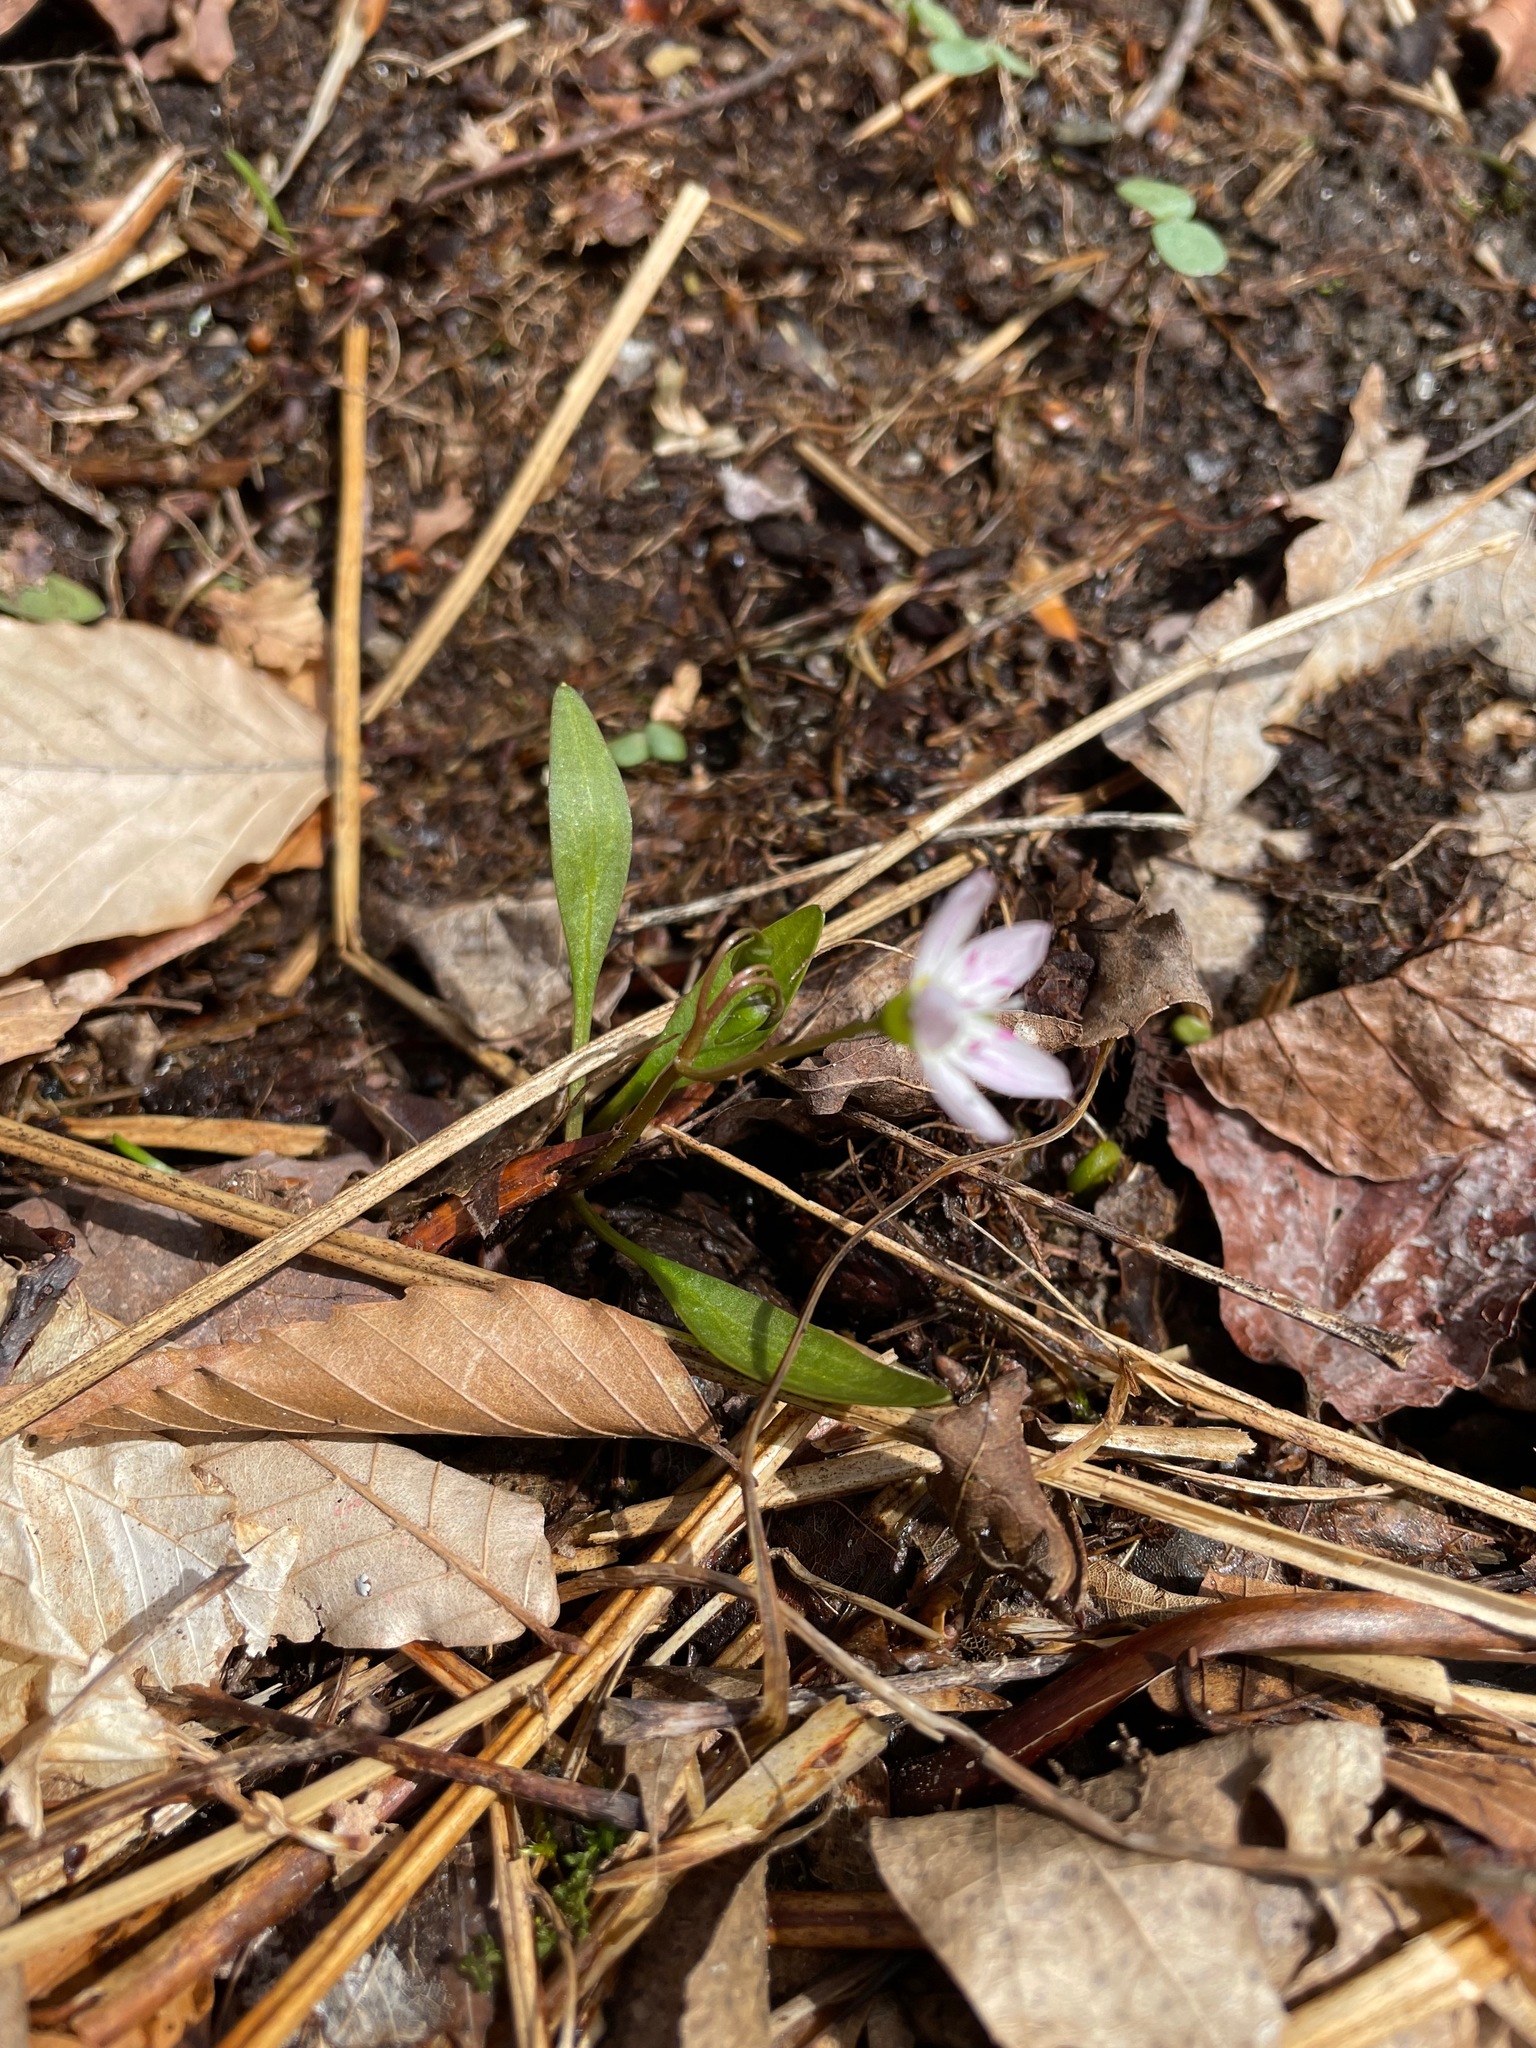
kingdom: Plantae
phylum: Tracheophyta
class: Magnoliopsida
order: Caryophyllales
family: Montiaceae
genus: Claytonia
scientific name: Claytonia caroliniana
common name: Carolina spring beauty
